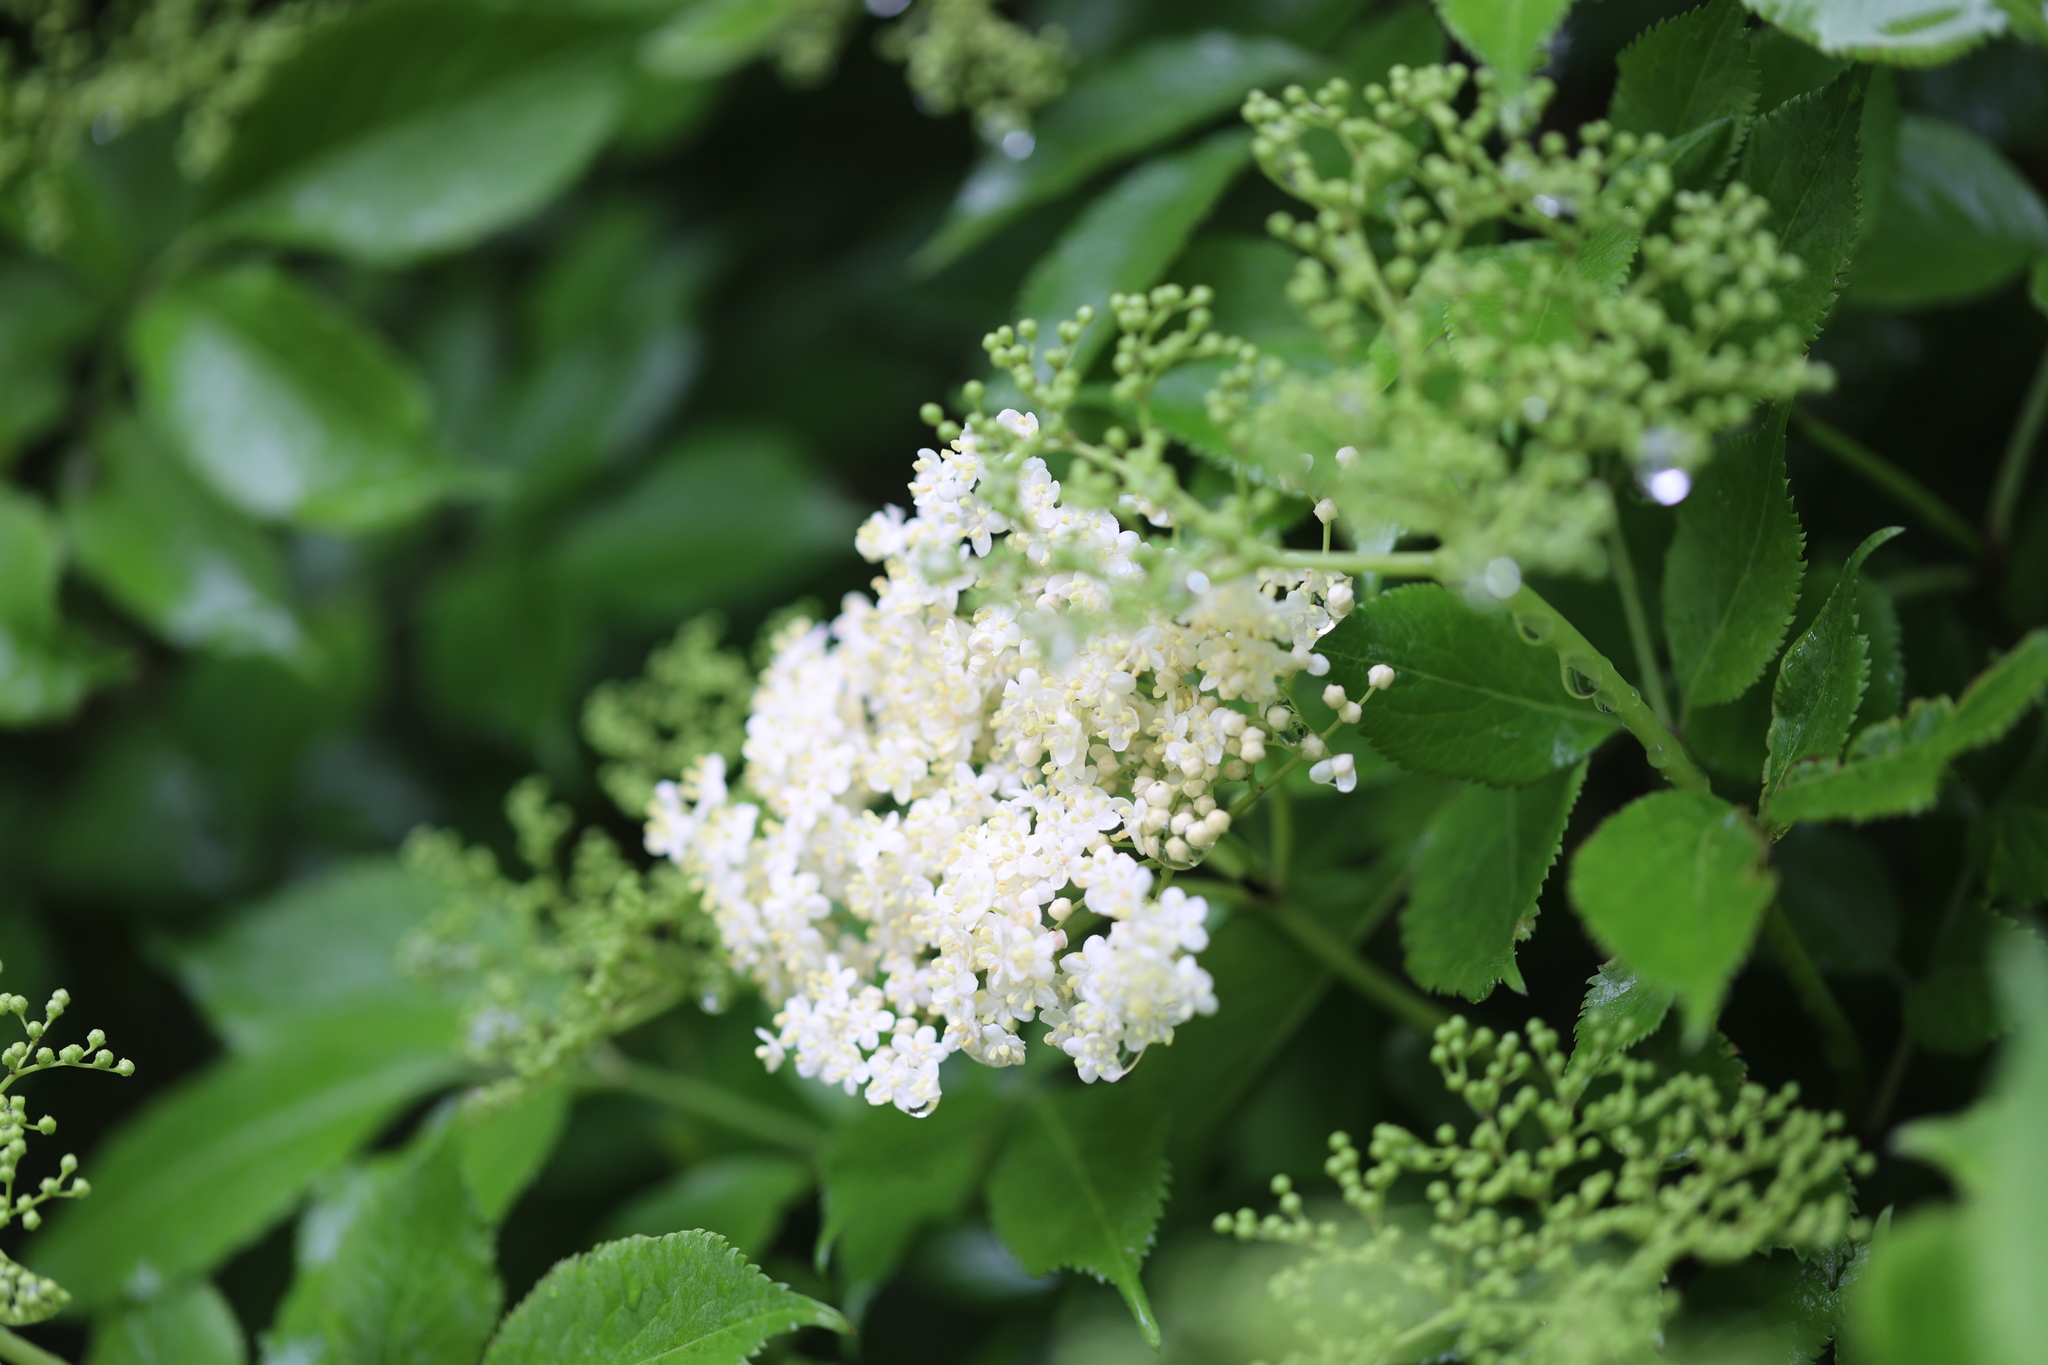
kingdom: Plantae
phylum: Tracheophyta
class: Magnoliopsida
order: Dipsacales
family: Viburnaceae
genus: Sambucus
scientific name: Sambucus nigra
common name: Elder
